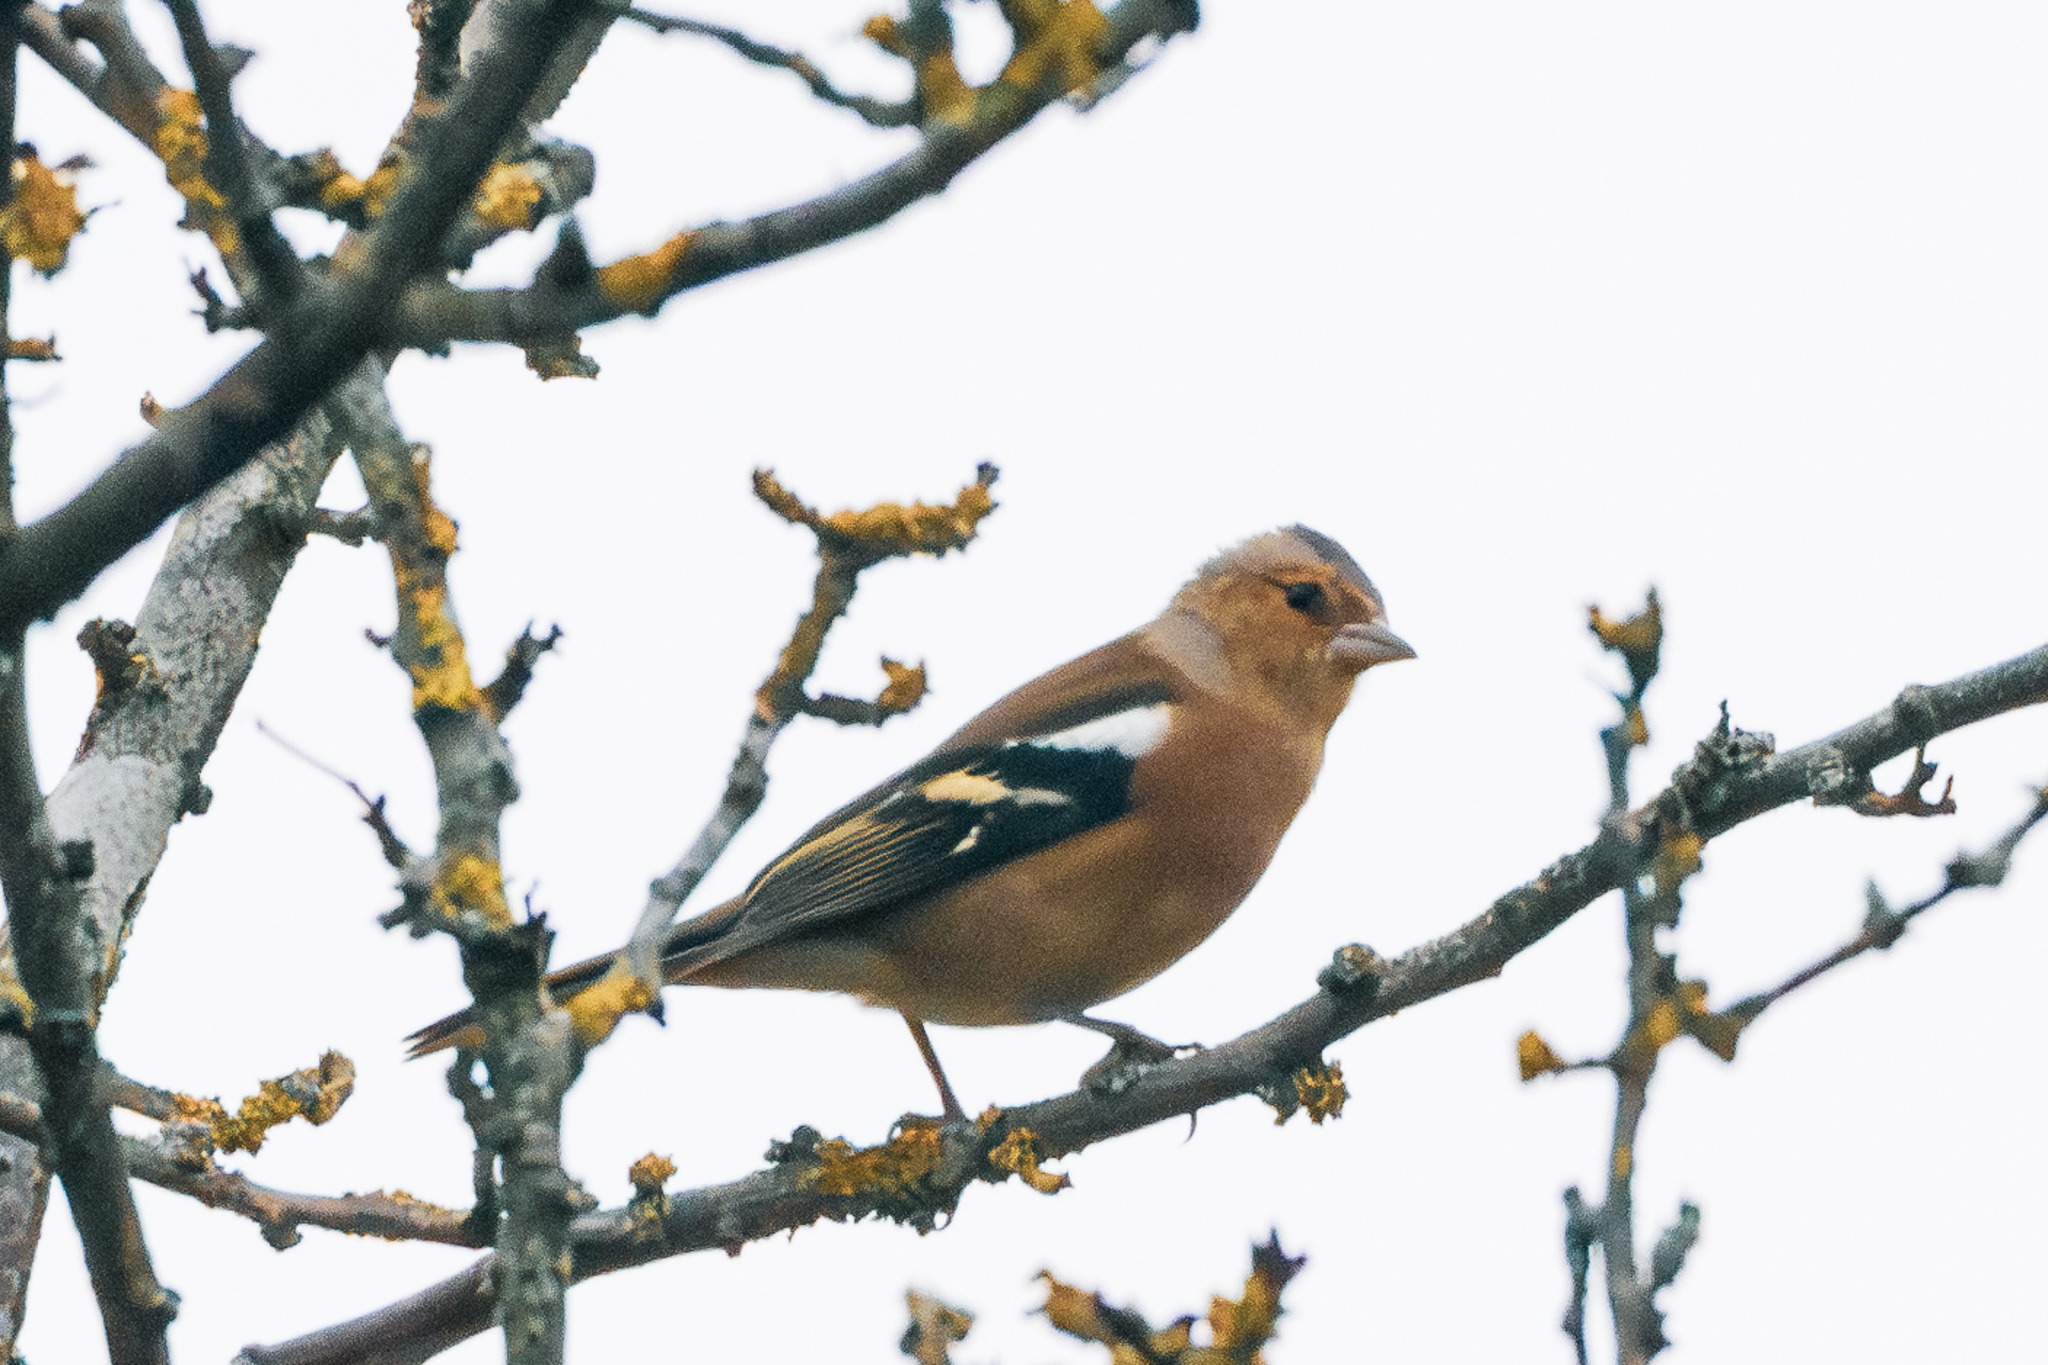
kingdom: Animalia
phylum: Chordata
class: Aves
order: Passeriformes
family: Fringillidae
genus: Fringilla
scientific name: Fringilla coelebs
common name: Common chaffinch
